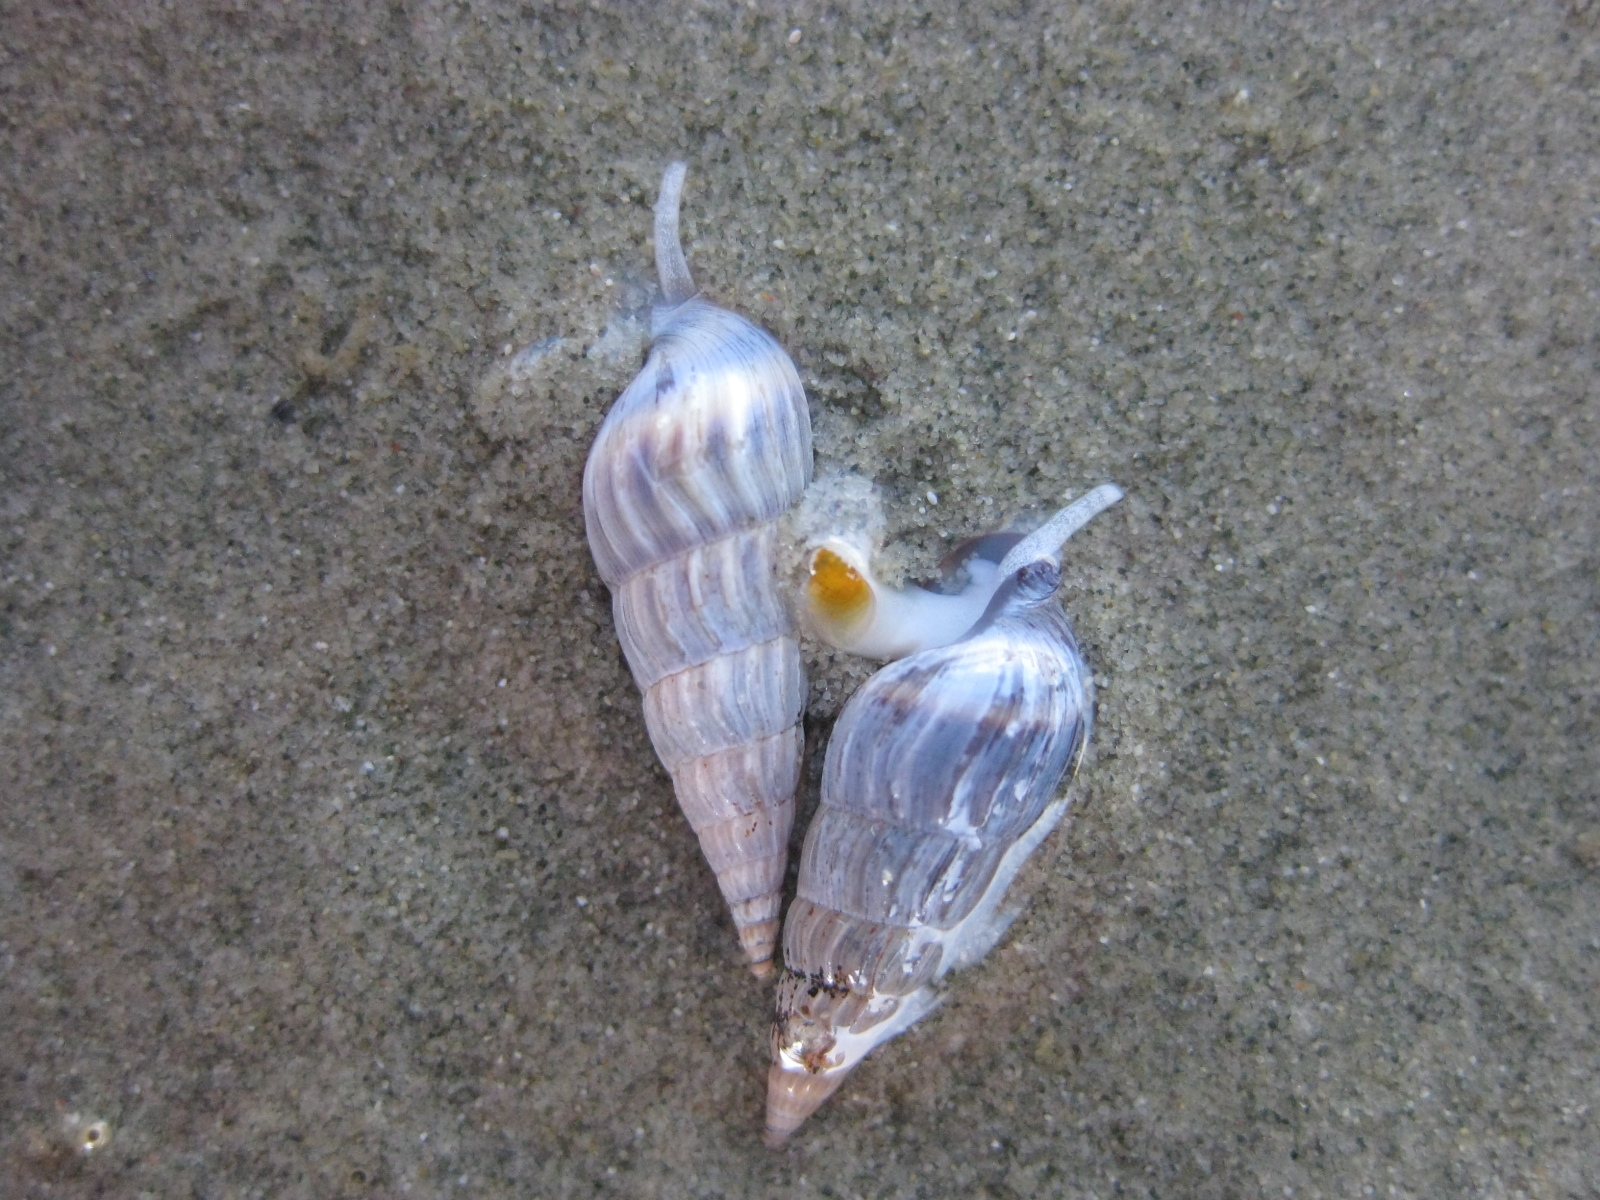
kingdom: Animalia
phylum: Mollusca
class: Gastropoda
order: Neogastropoda
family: Terebridae
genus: Duplicaria
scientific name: Duplicaria tristis
